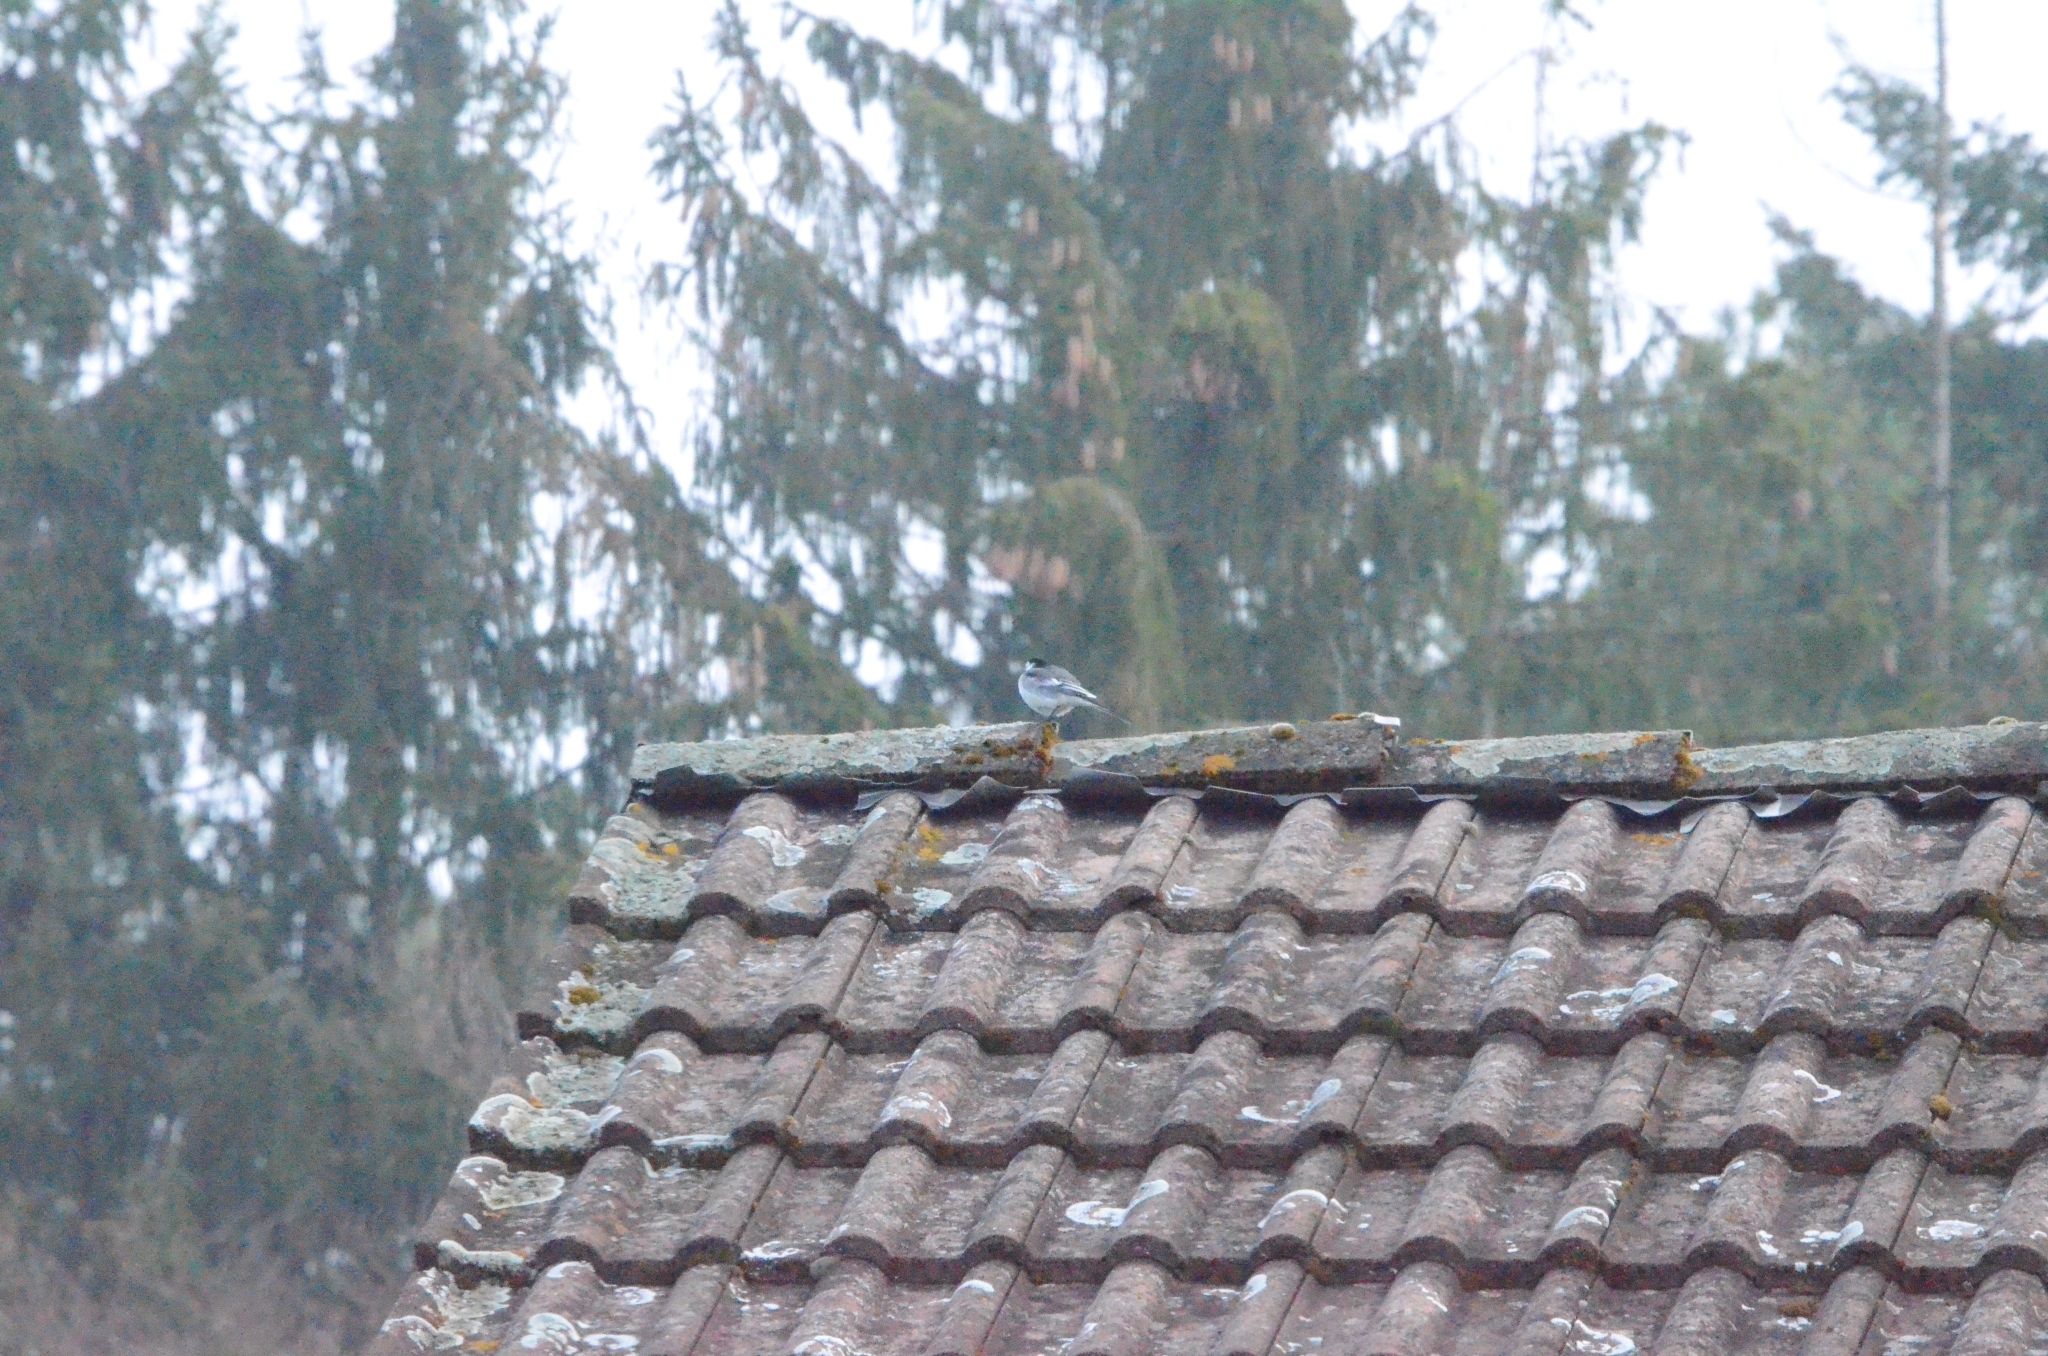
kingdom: Animalia
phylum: Chordata
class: Aves
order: Passeriformes
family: Motacillidae
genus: Motacilla
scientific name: Motacilla alba
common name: White wagtail
